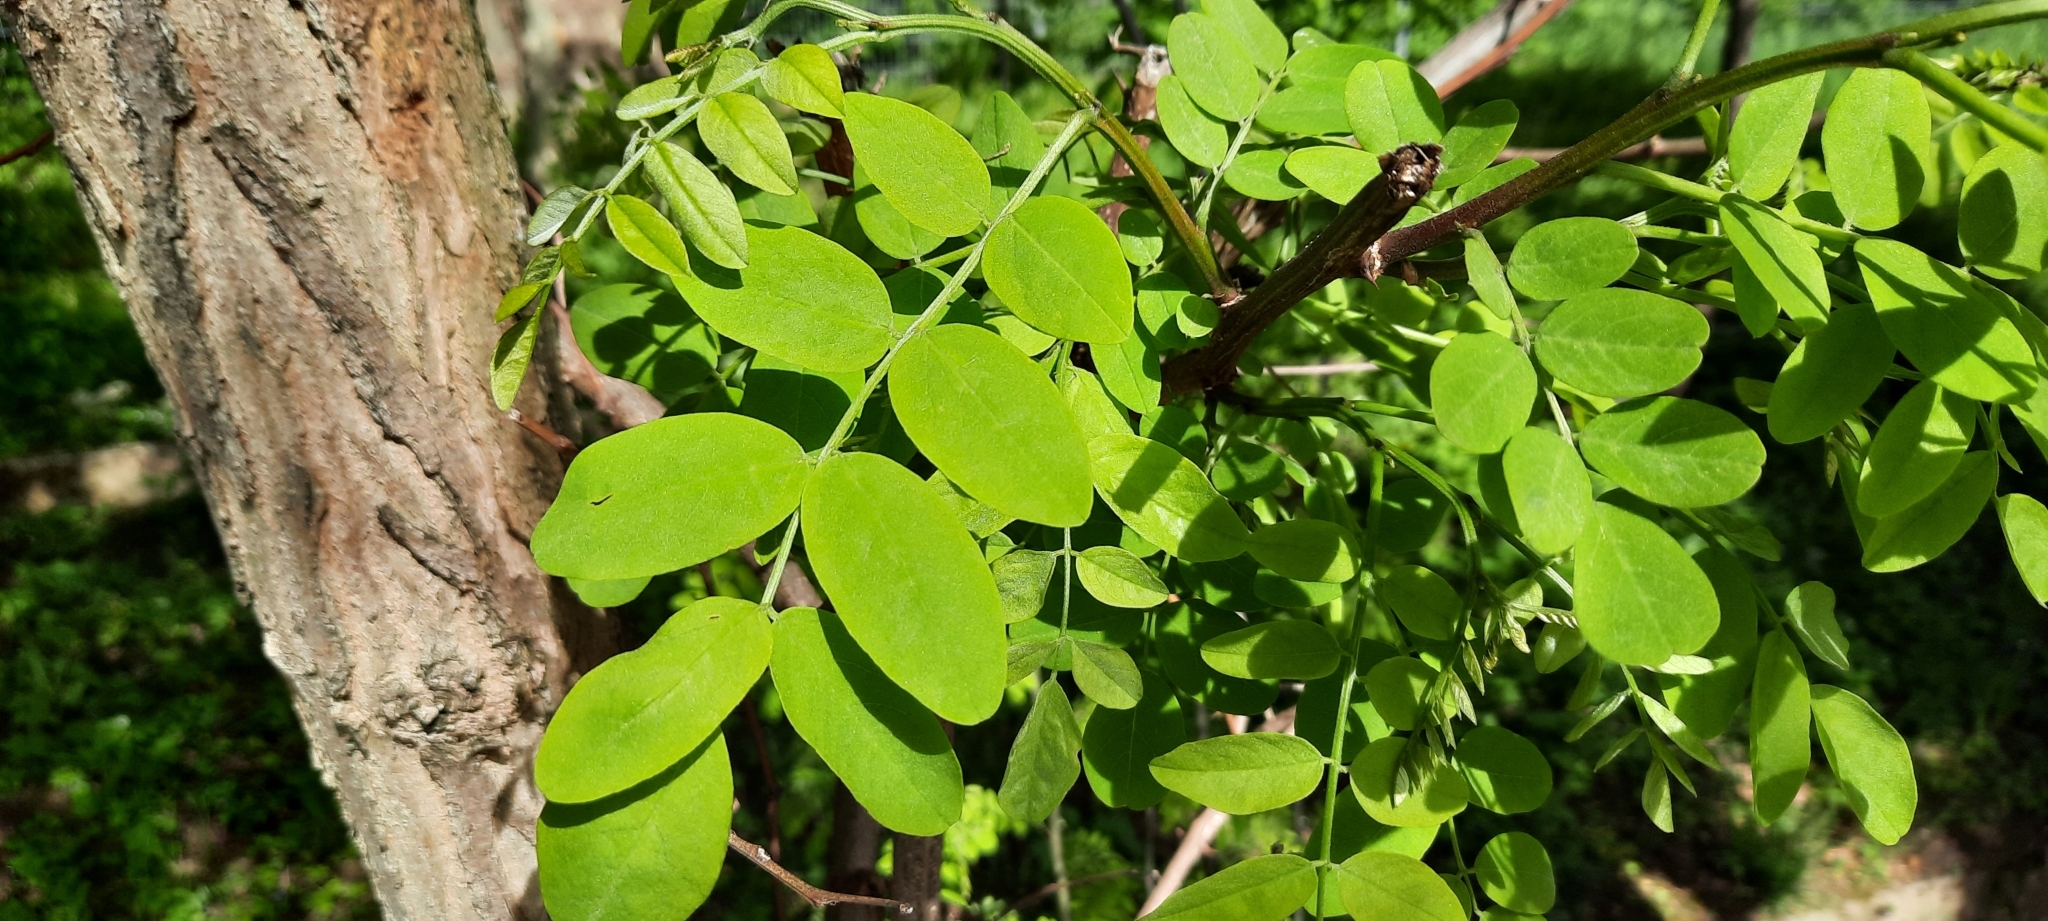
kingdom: Plantae
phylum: Tracheophyta
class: Magnoliopsida
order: Fabales
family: Fabaceae
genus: Robinia
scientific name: Robinia pseudoacacia
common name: Black locust
